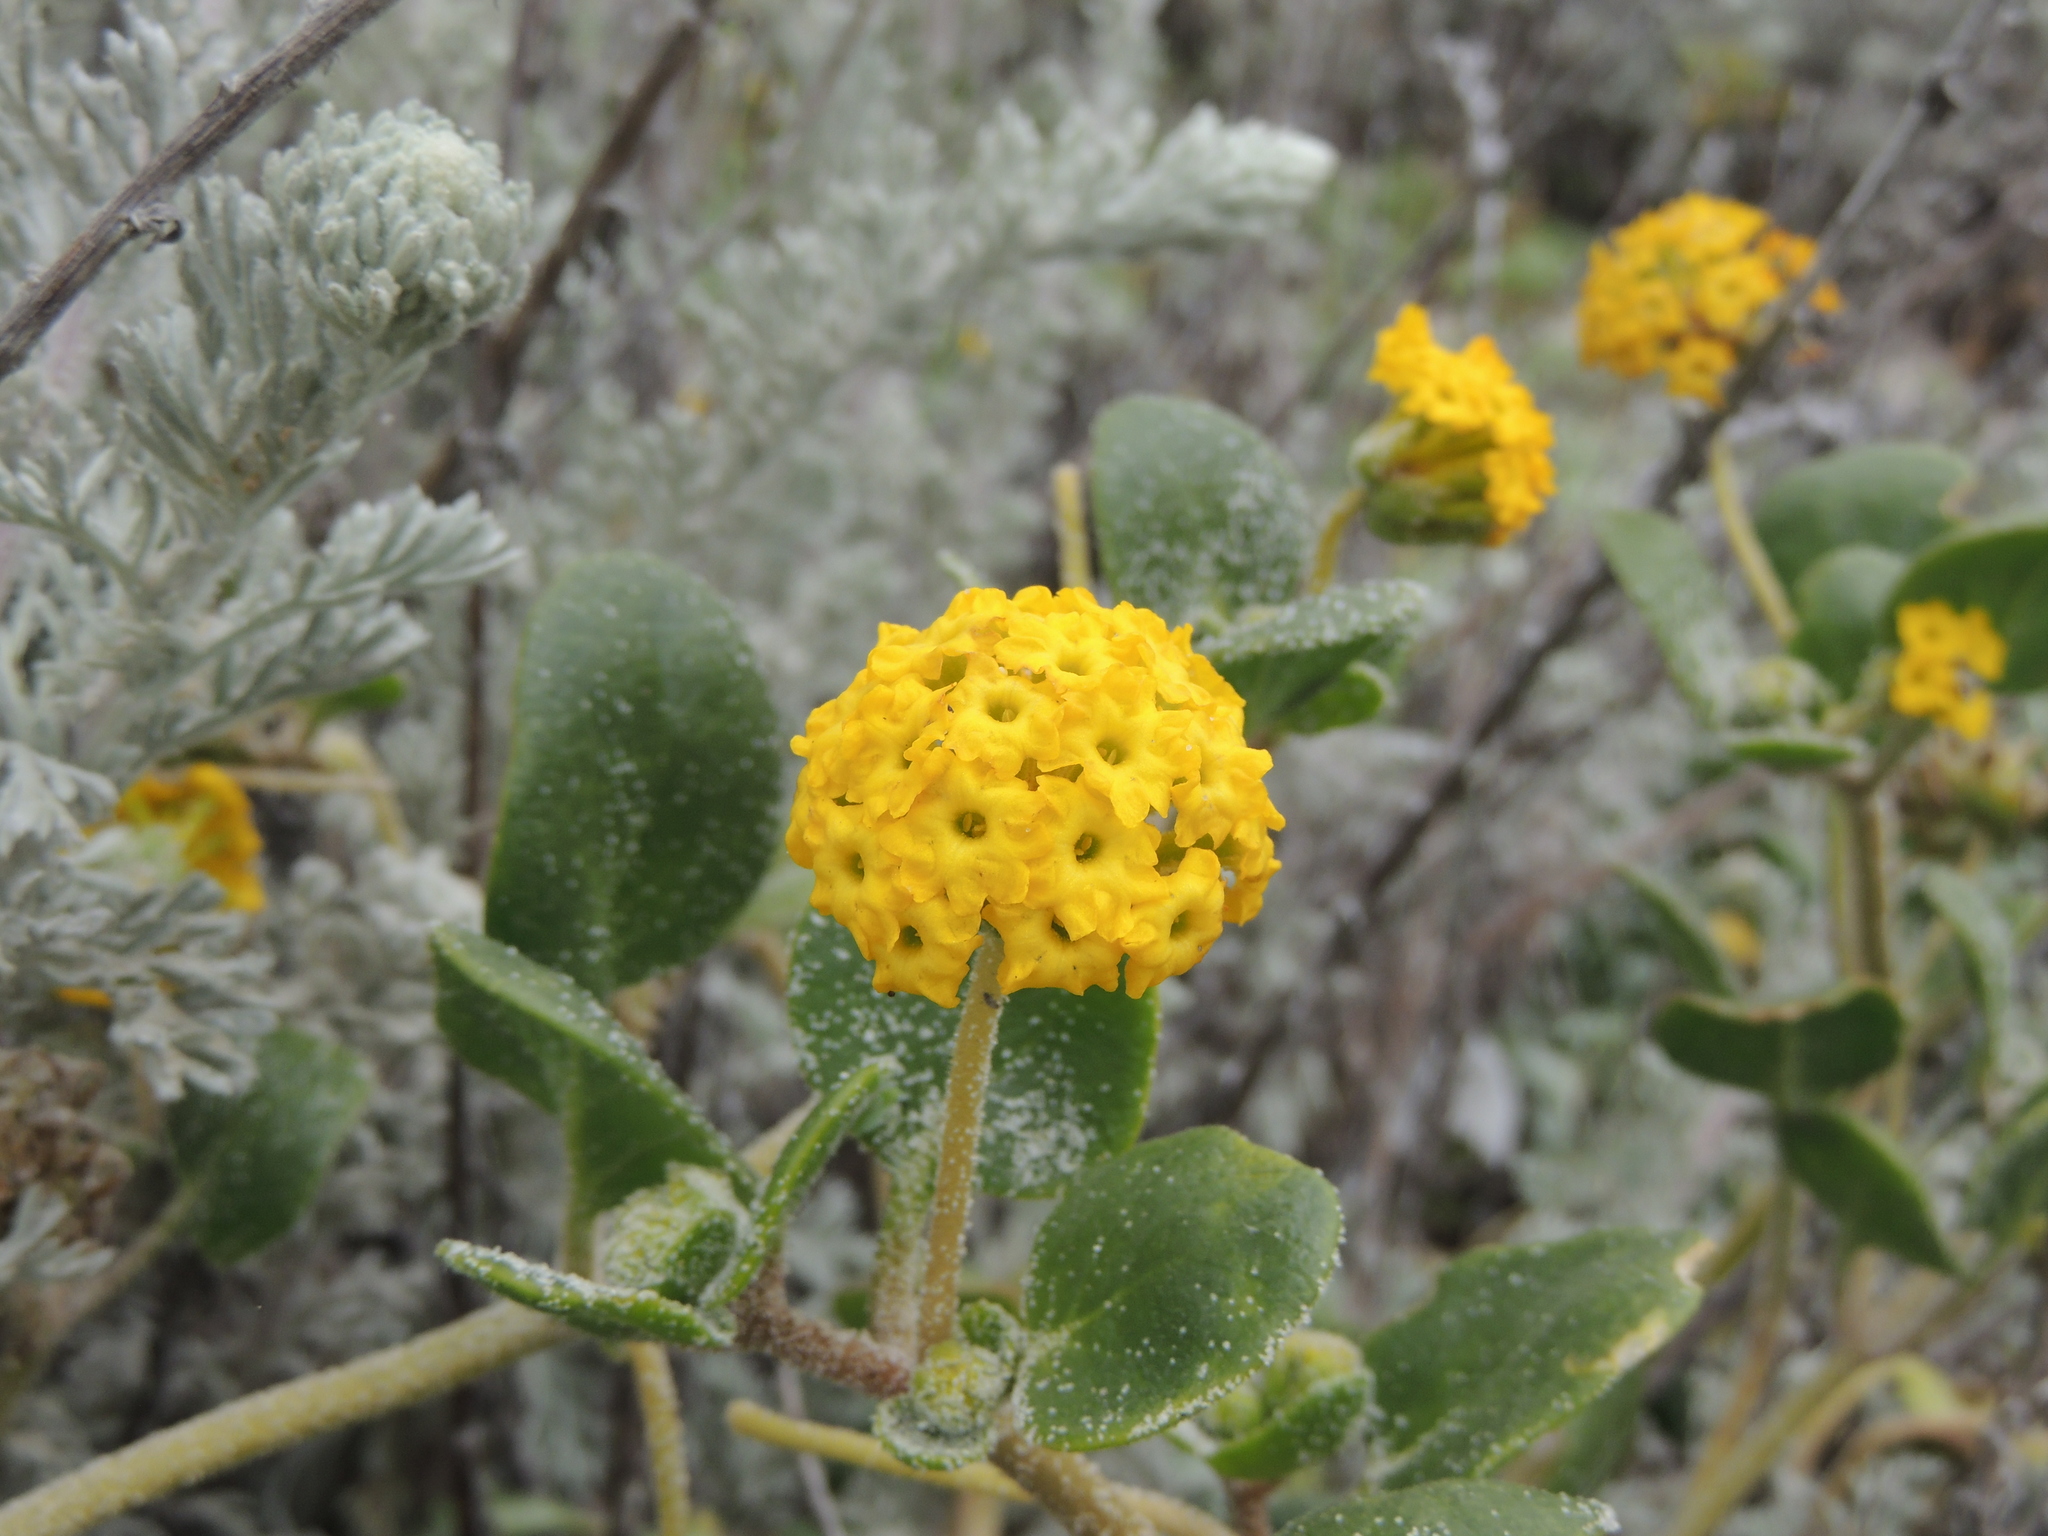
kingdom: Plantae
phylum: Tracheophyta
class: Magnoliopsida
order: Caryophyllales
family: Nyctaginaceae
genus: Abronia
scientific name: Abronia latifolia
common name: Yellow sand-verbena
